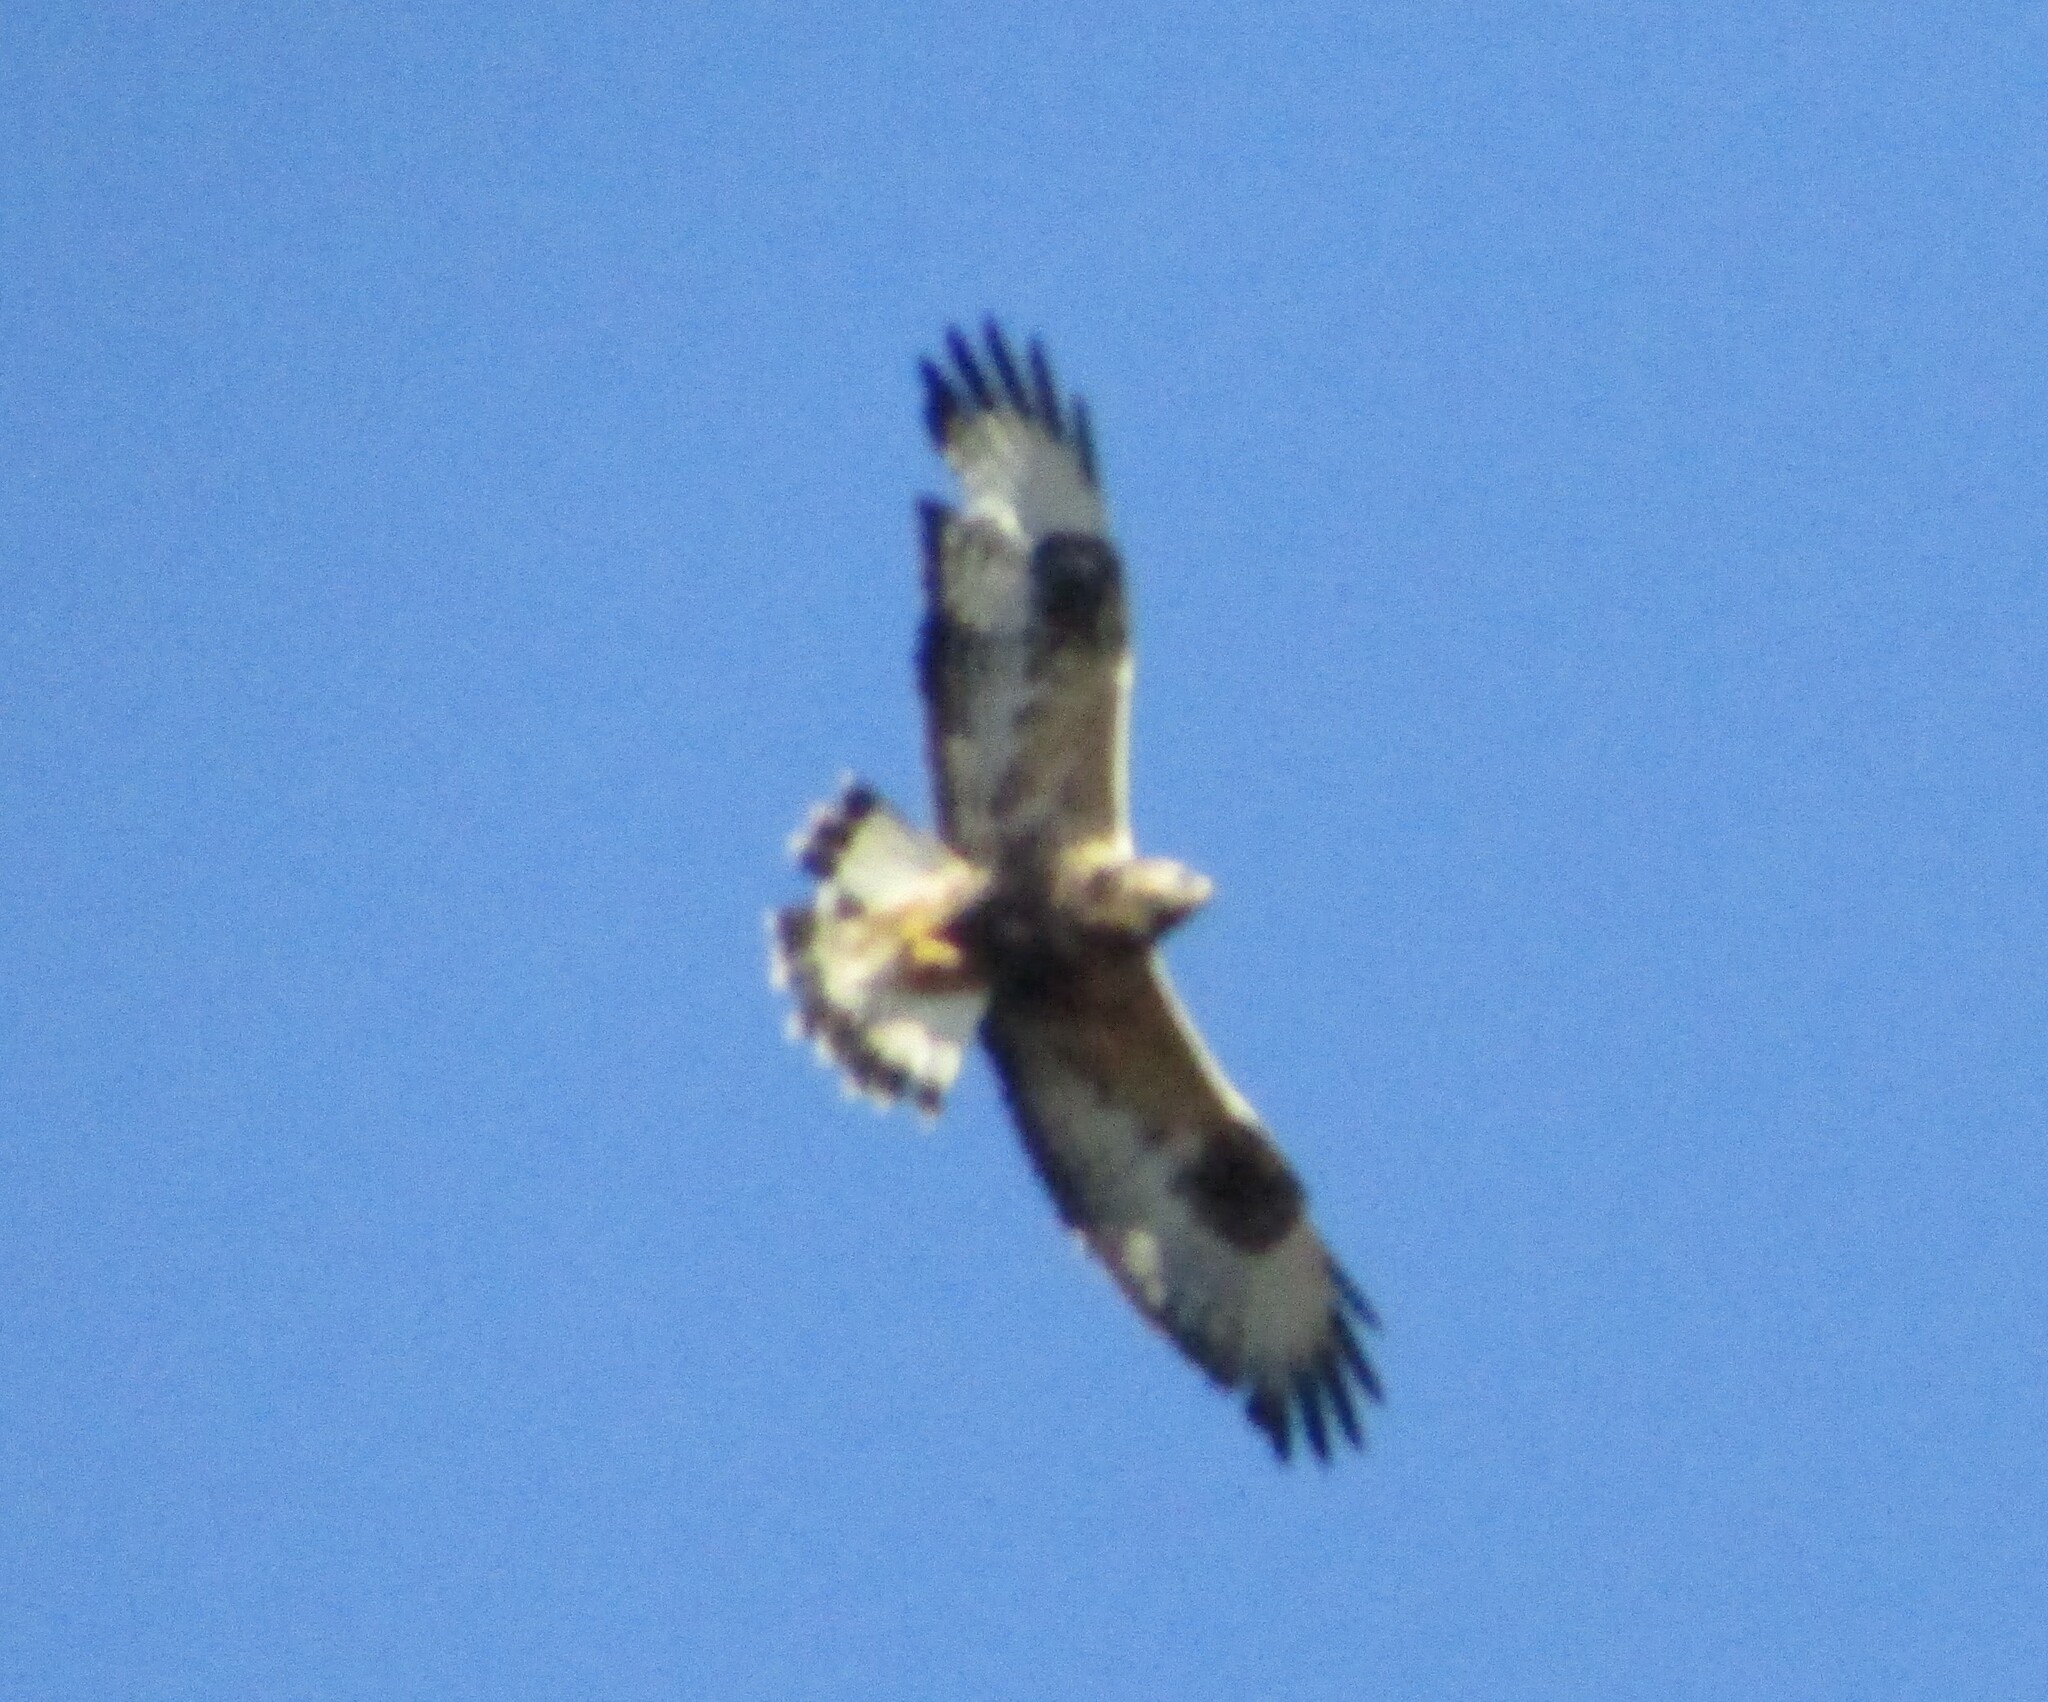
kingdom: Animalia
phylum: Chordata
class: Aves
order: Accipitriformes
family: Accipitridae
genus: Buteo
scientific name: Buteo lagopus
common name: Rough-legged buzzard
